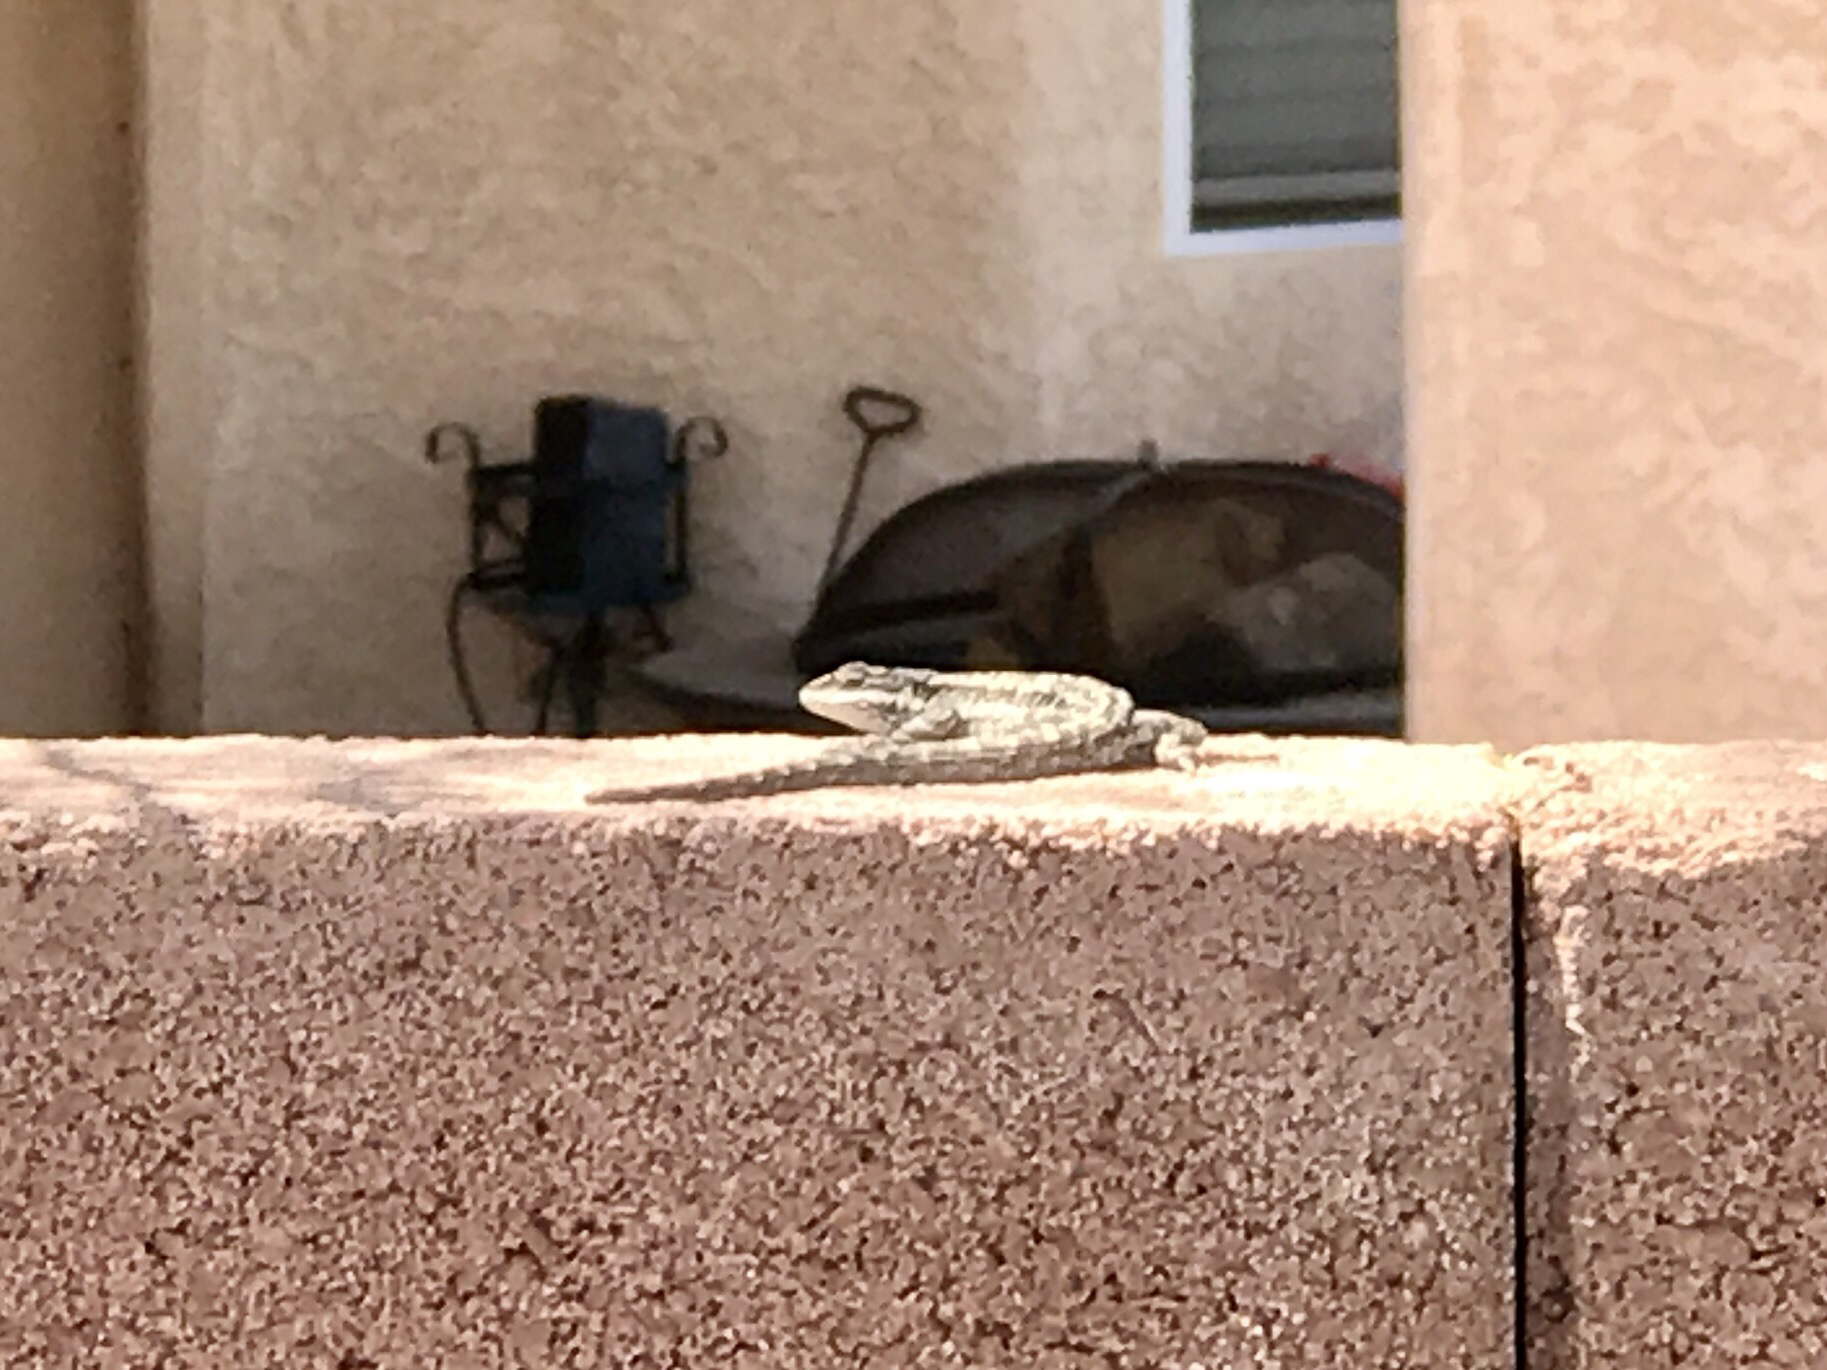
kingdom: Animalia
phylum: Chordata
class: Squamata
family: Phrynosomatidae
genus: Urosaurus
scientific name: Urosaurus ornatus
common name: Ornate tree lizard
